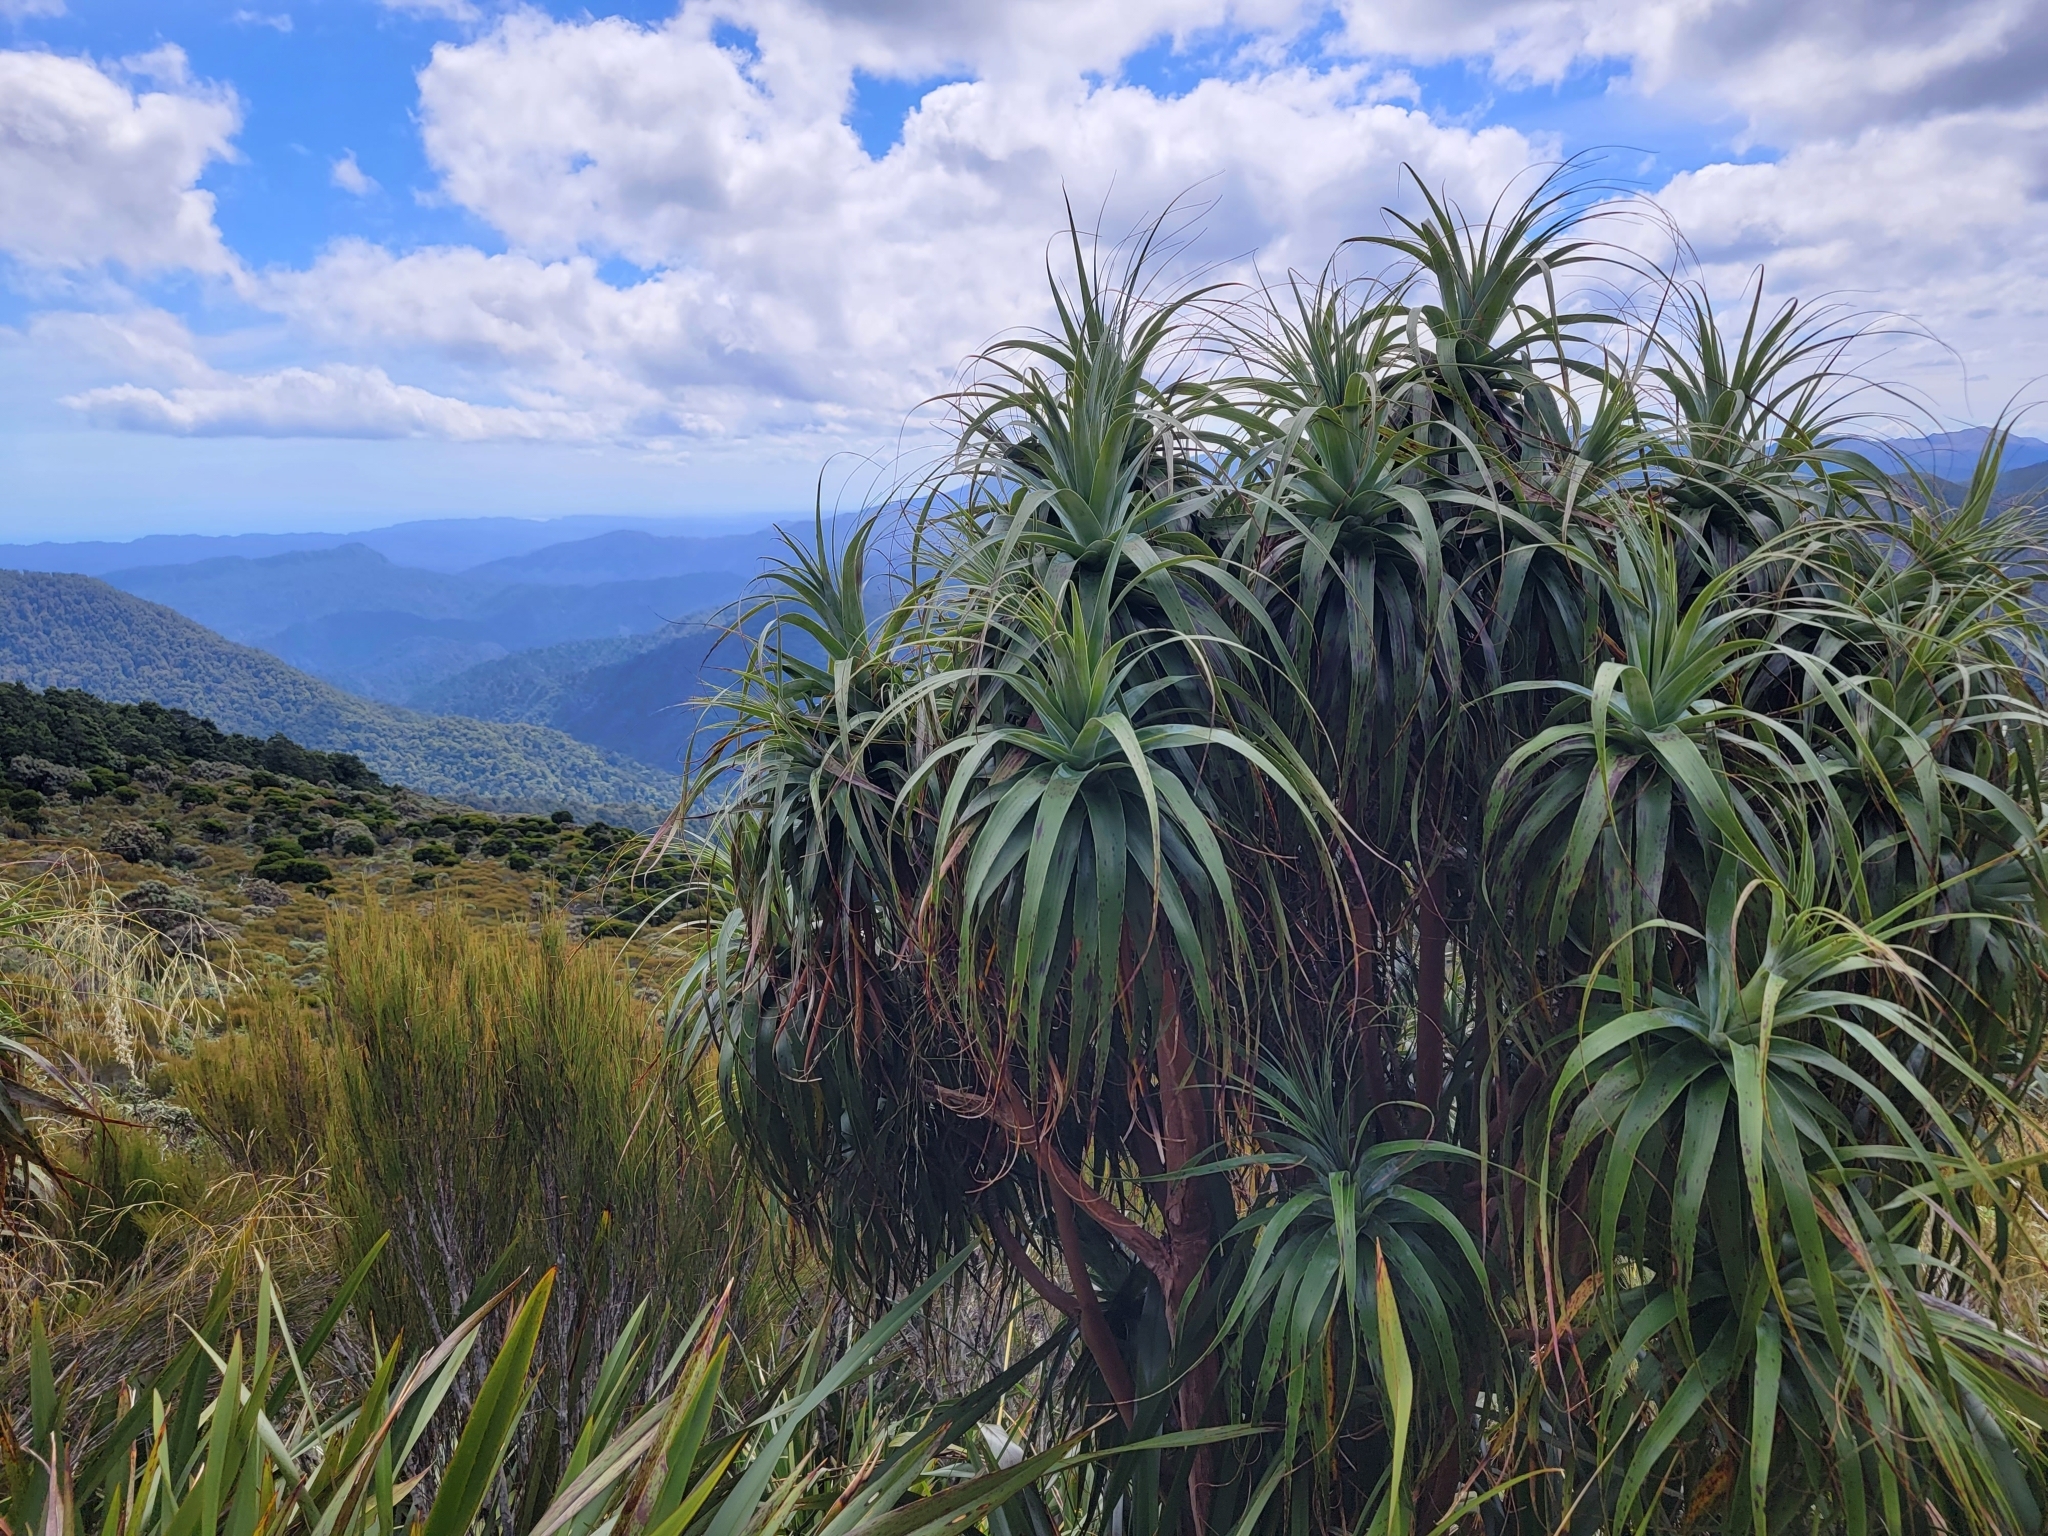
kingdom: Plantae
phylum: Tracheophyta
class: Magnoliopsida
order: Ericales
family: Ericaceae
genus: Dracophyllum
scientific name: Dracophyllum traversii
